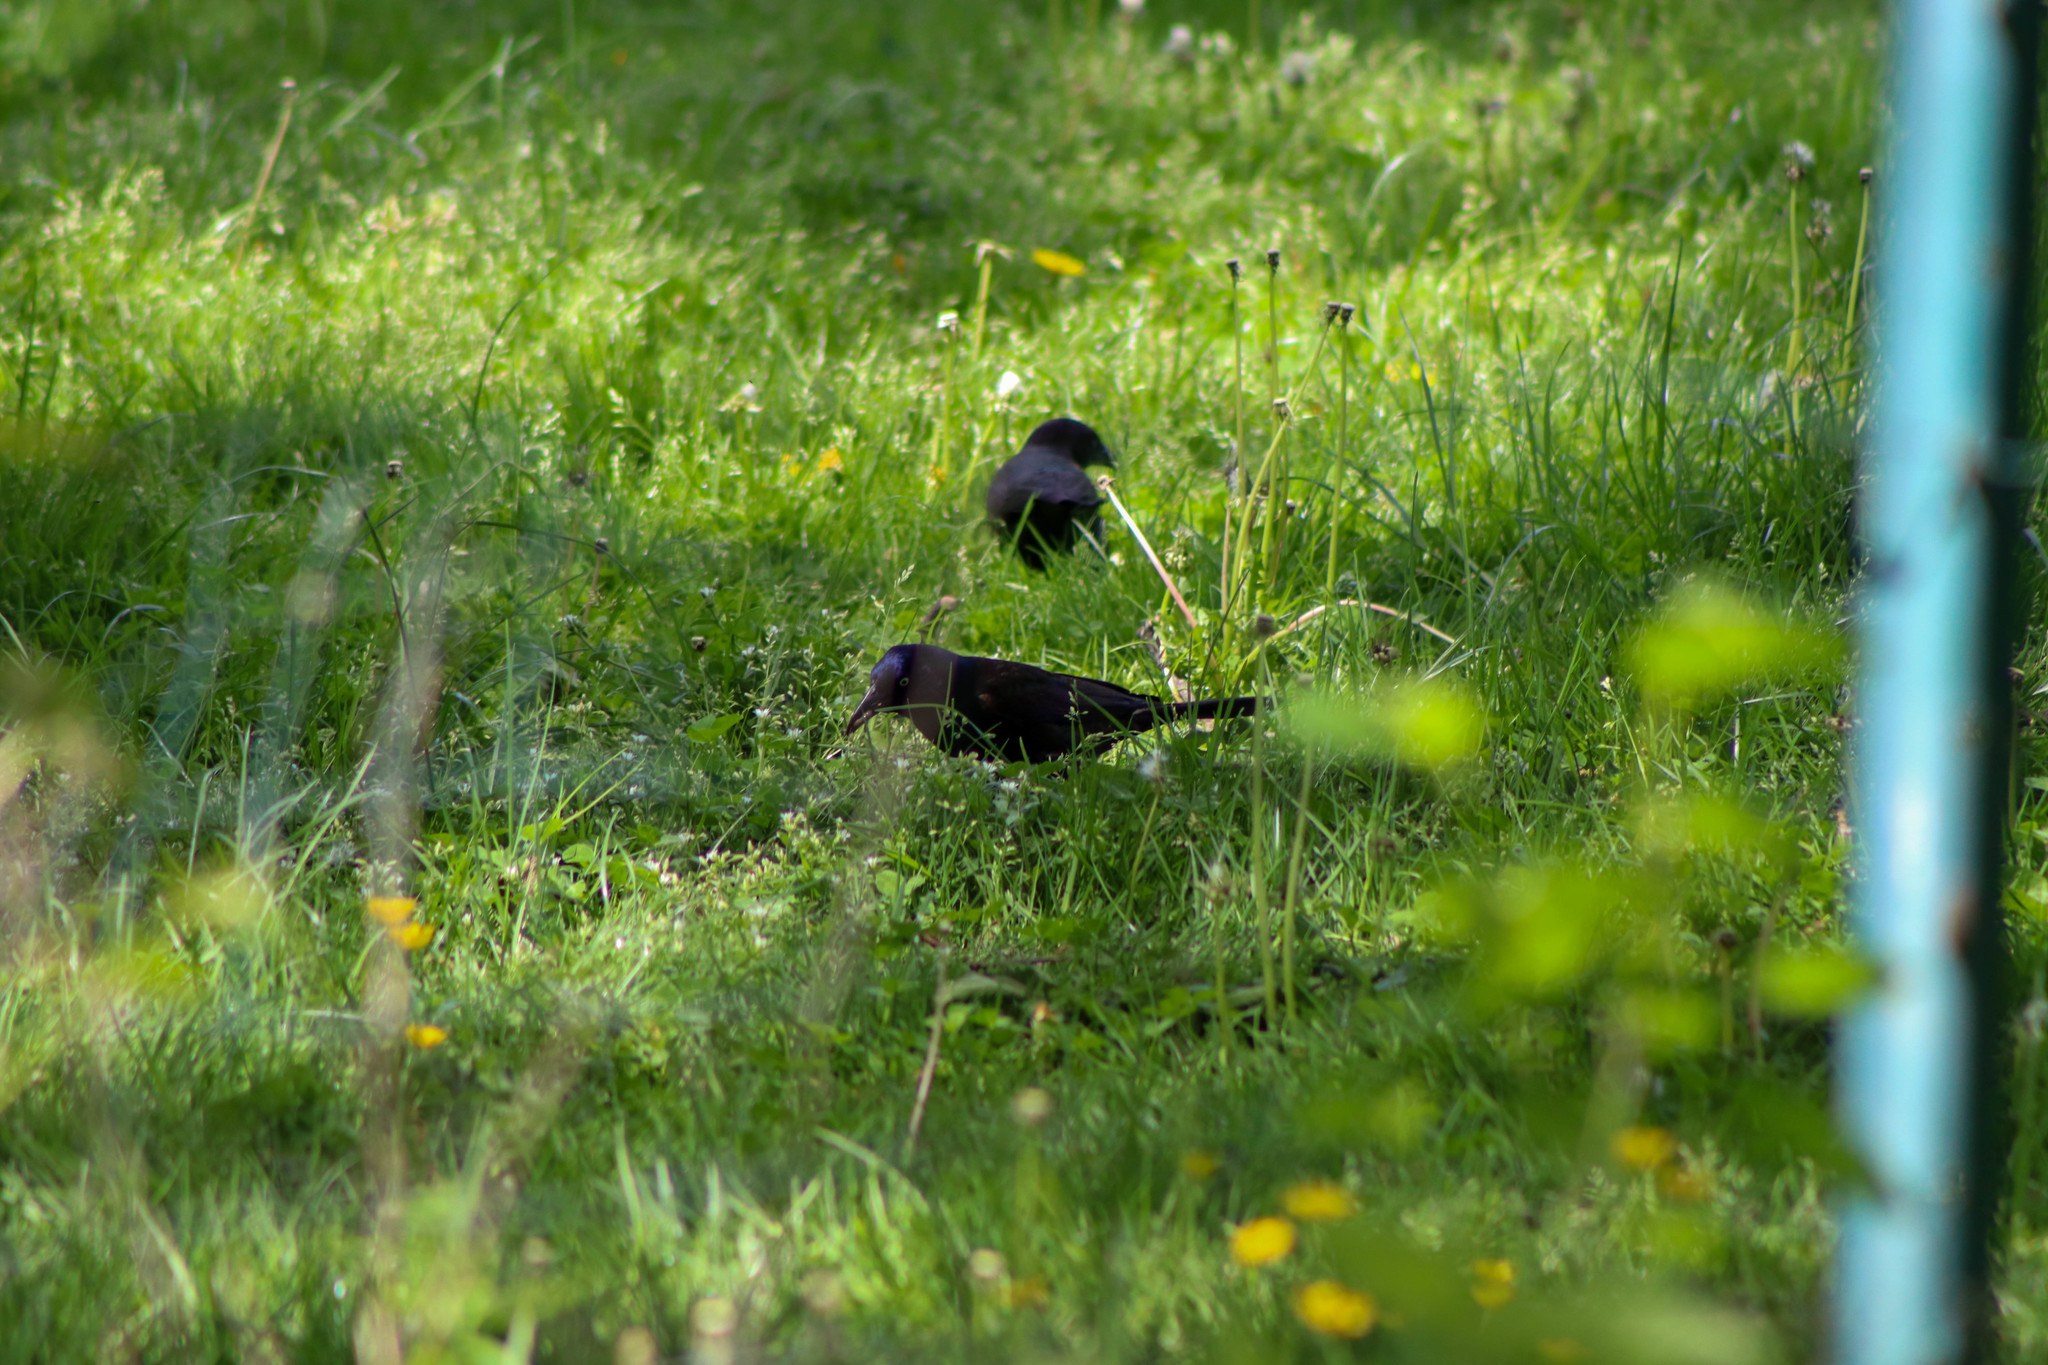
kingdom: Animalia
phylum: Chordata
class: Aves
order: Passeriformes
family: Icteridae
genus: Quiscalus
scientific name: Quiscalus quiscula
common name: Common grackle
